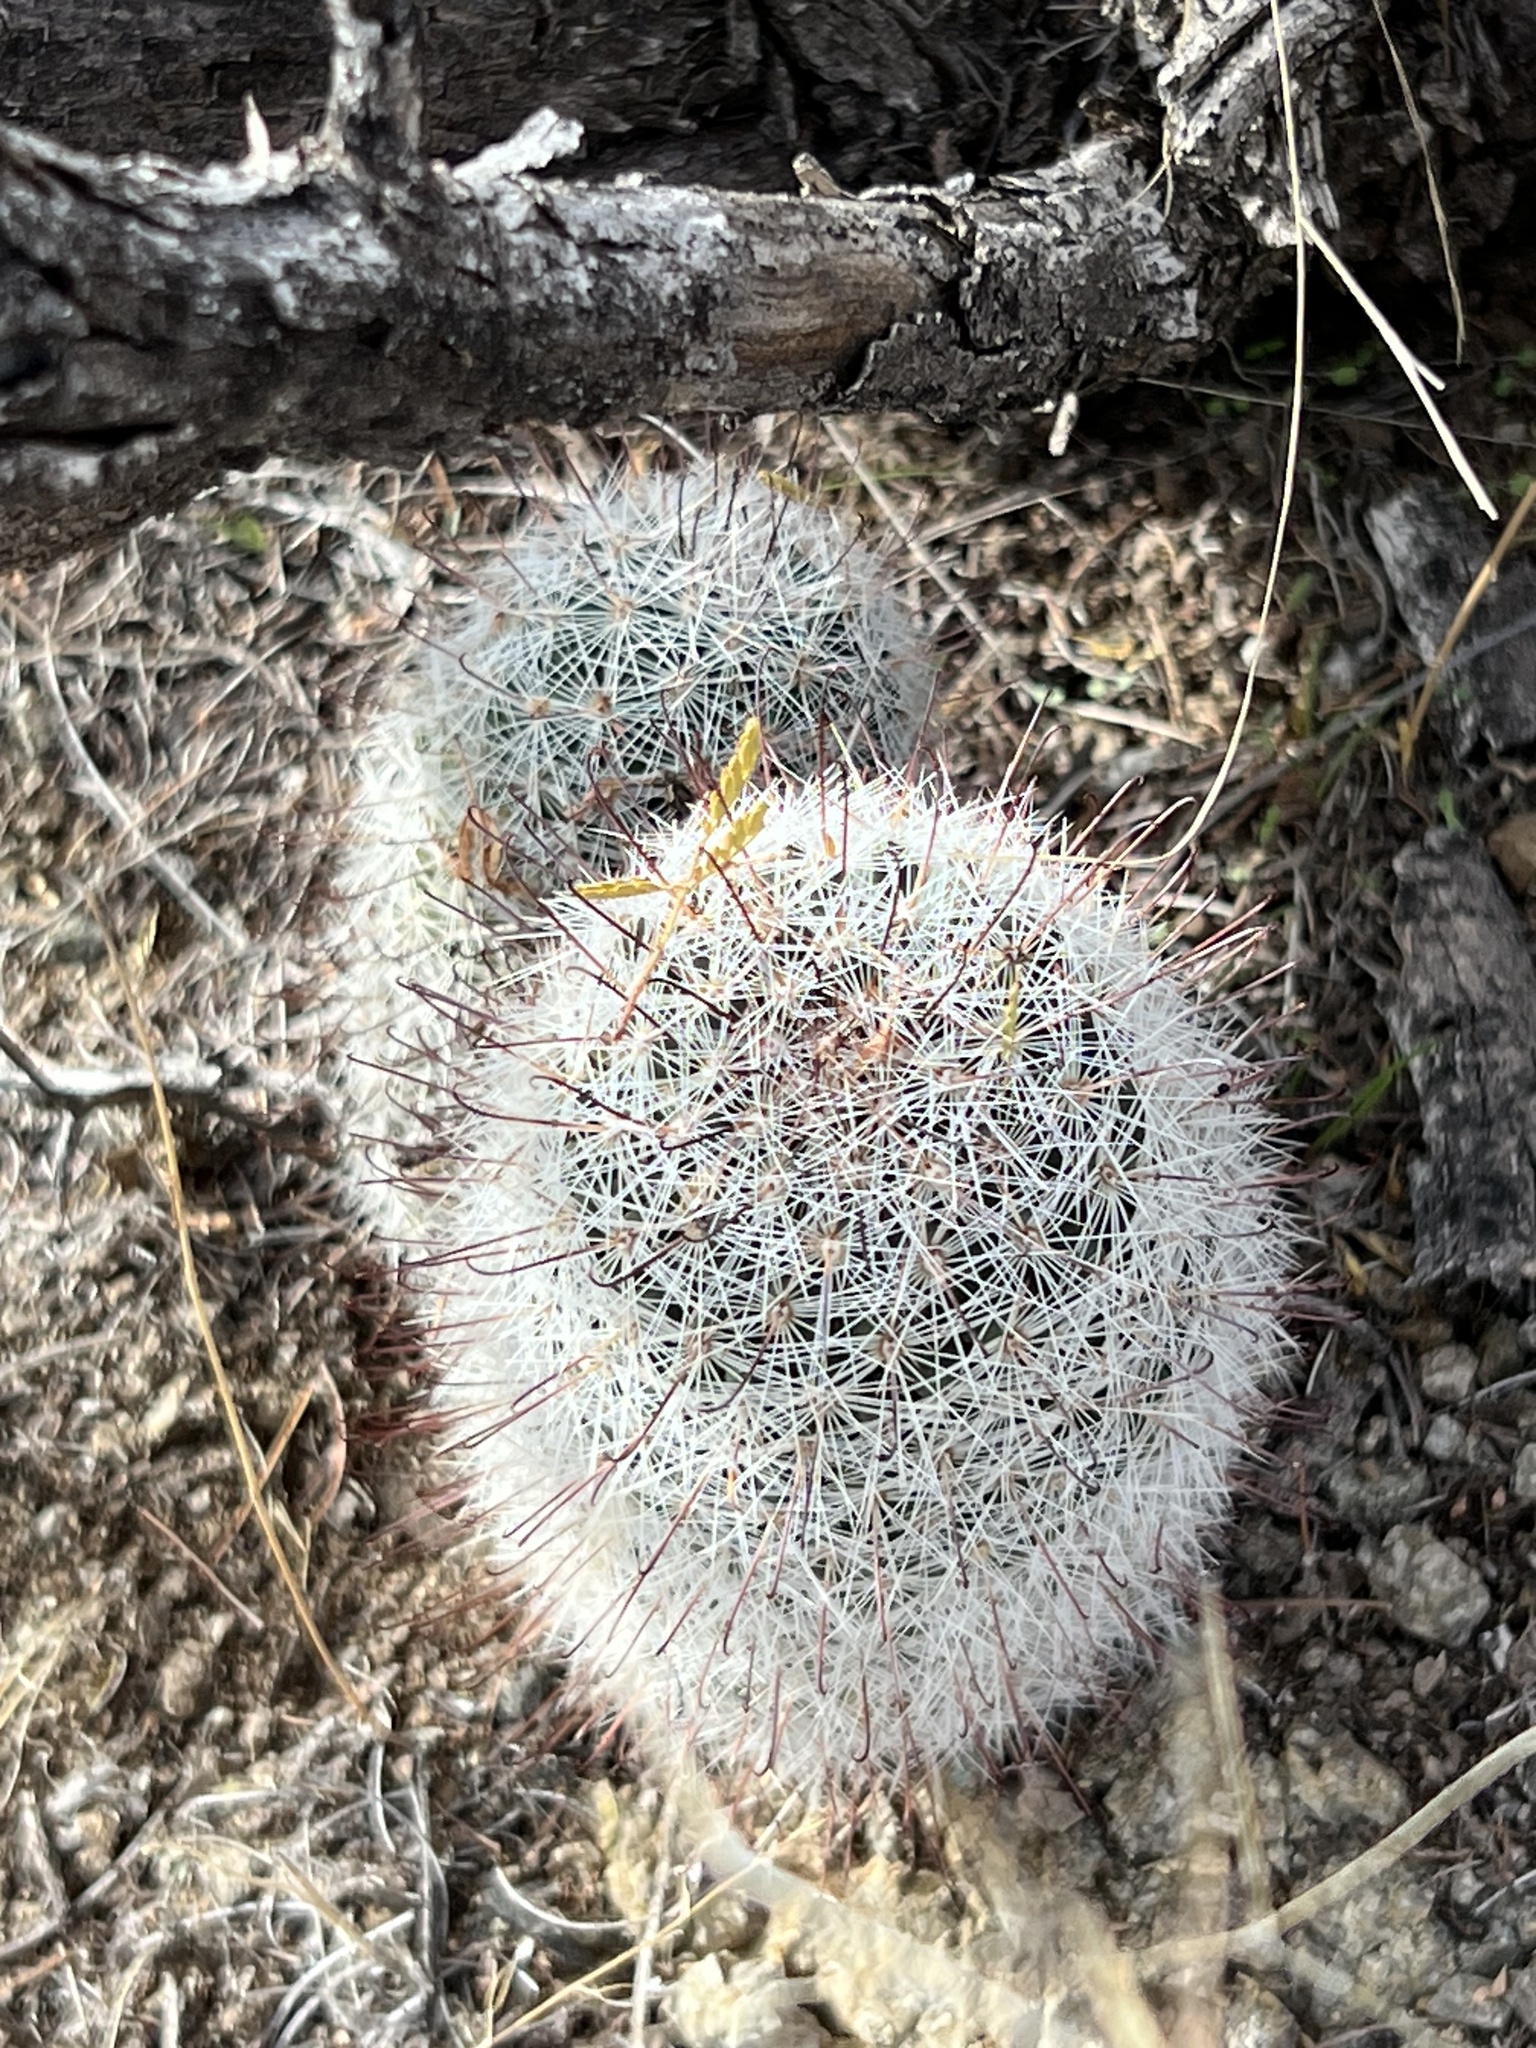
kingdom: Plantae
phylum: Tracheophyta
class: Magnoliopsida
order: Caryophyllales
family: Cactaceae
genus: Cochemiea
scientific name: Cochemiea grahamii
